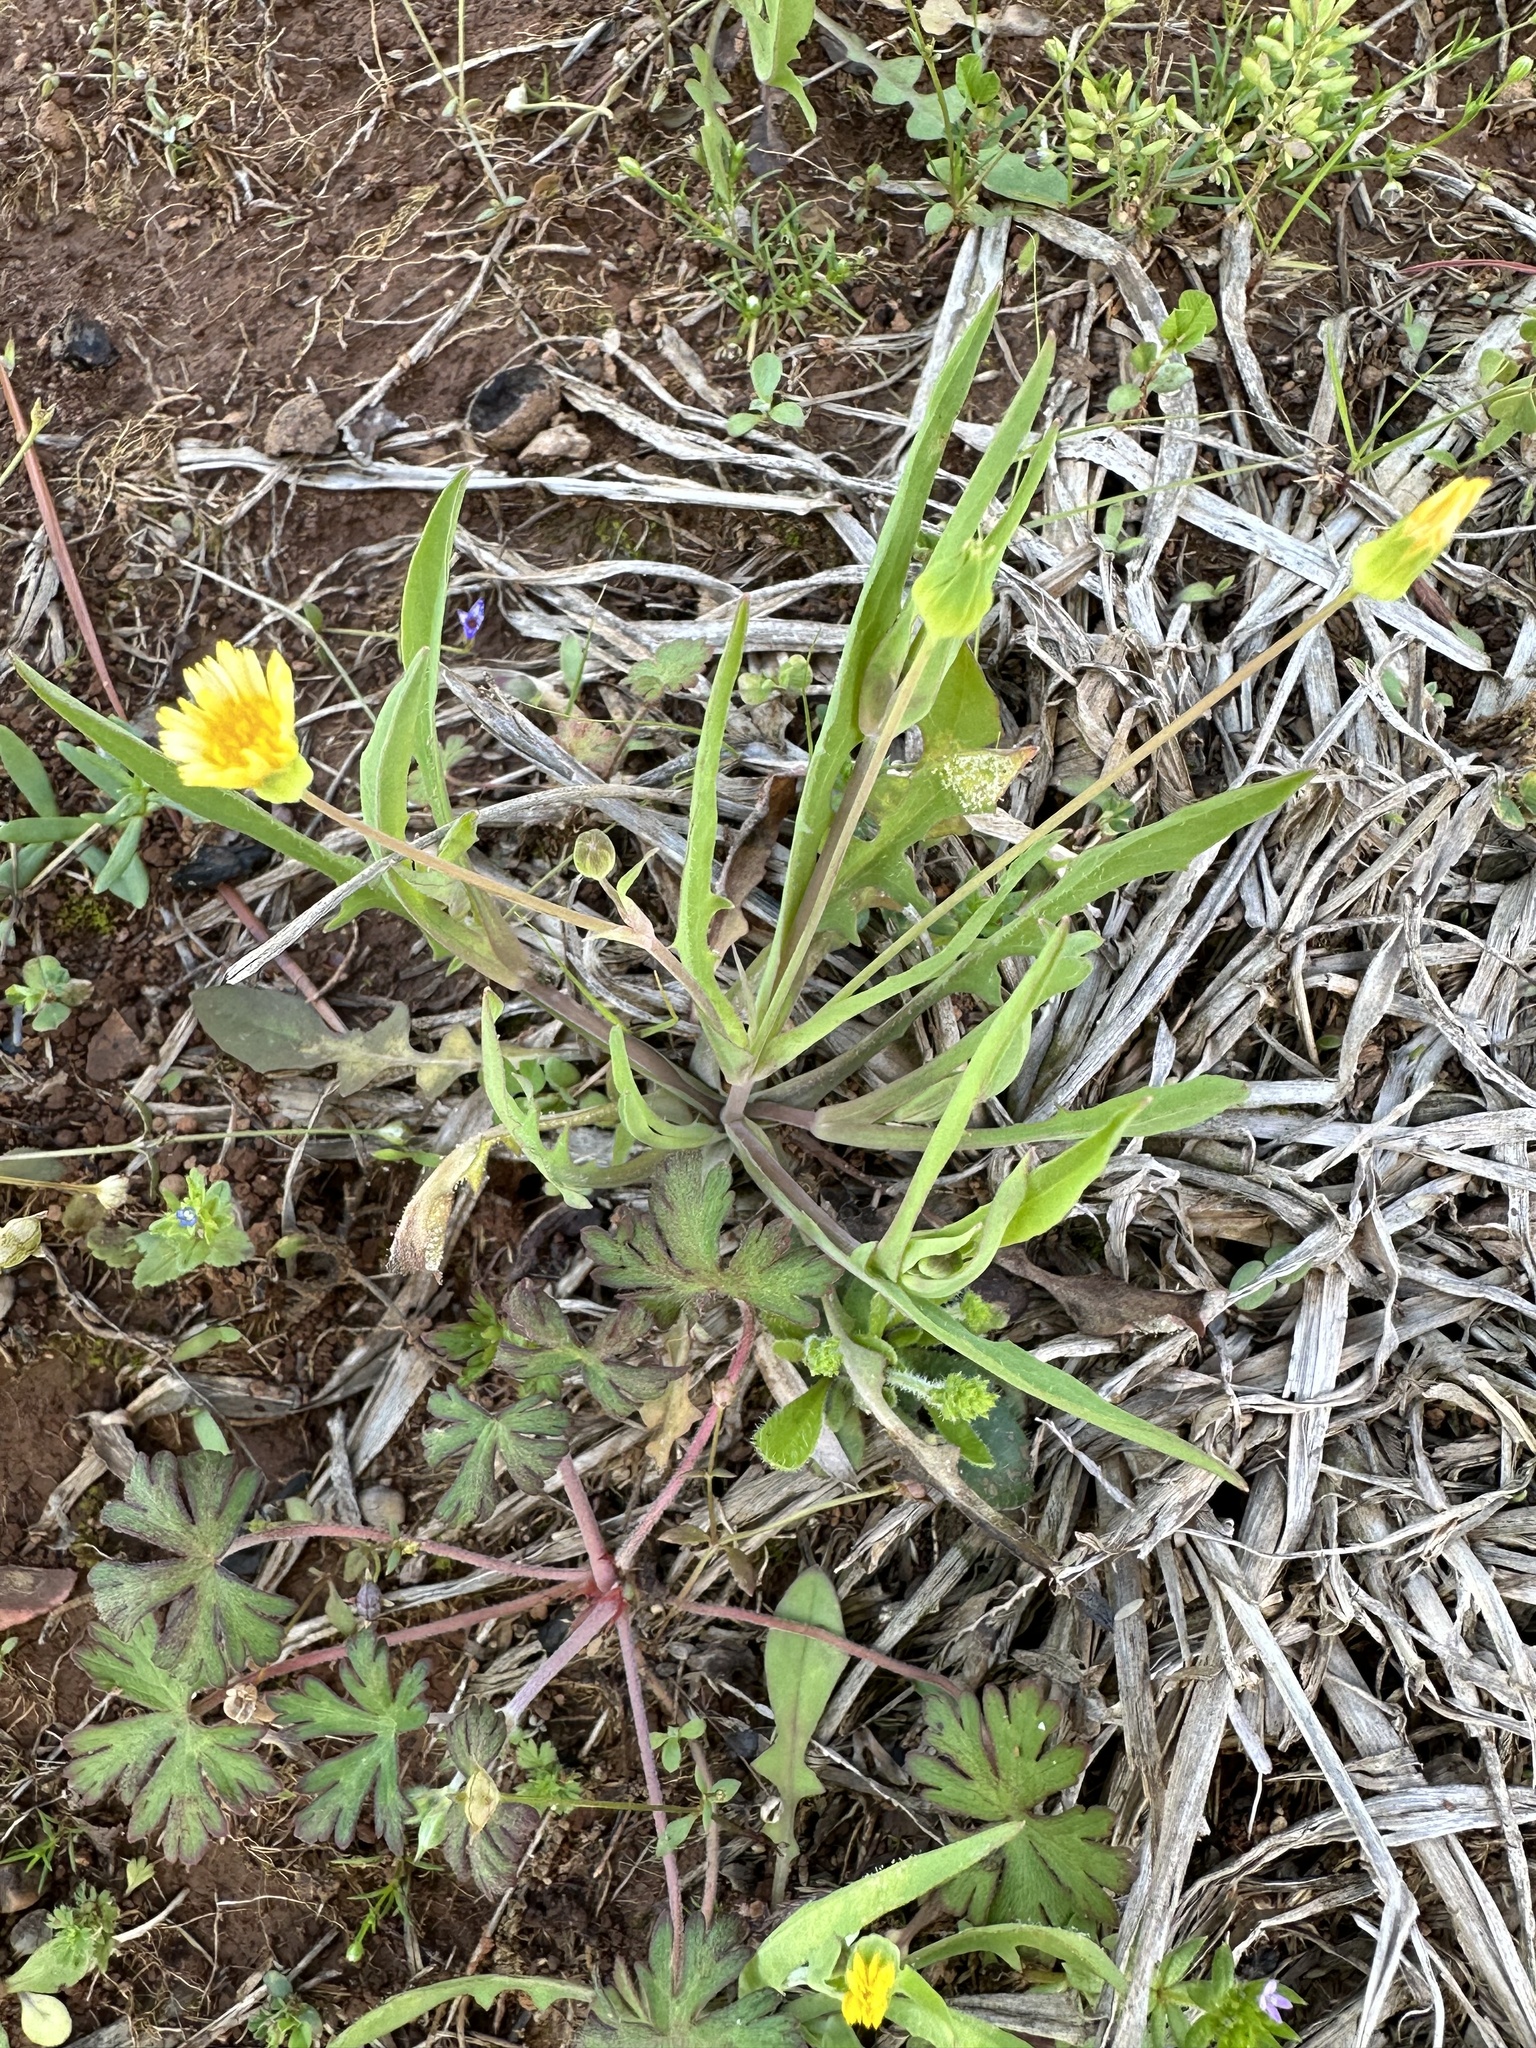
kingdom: Plantae
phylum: Tracheophyta
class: Magnoliopsida
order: Asterales
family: Asteraceae
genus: Krigia
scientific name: Krigia cespitosa
